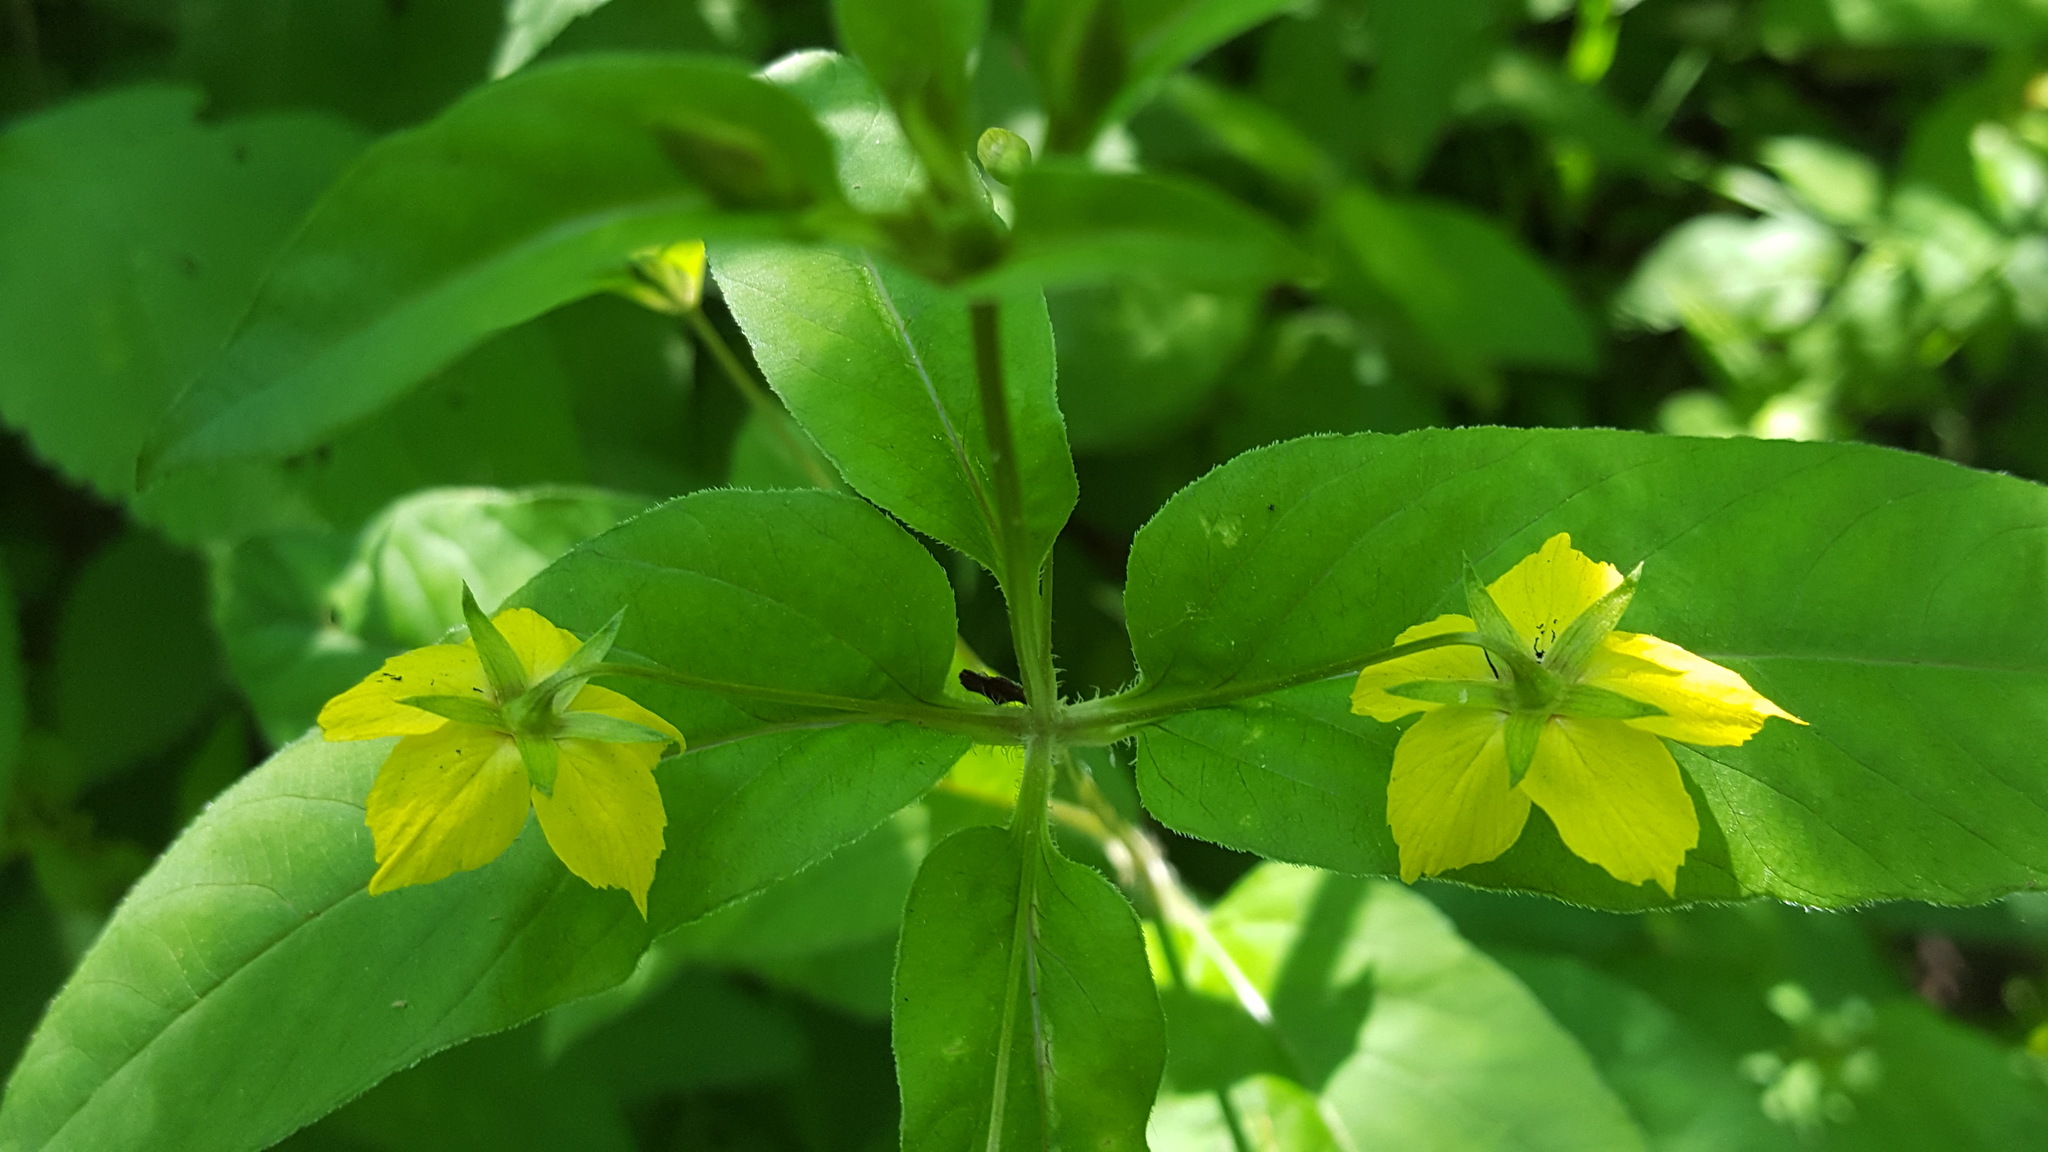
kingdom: Plantae
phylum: Tracheophyta
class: Magnoliopsida
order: Ericales
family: Primulaceae
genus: Lysimachia
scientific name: Lysimachia ciliata
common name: Fringed loosestrife
